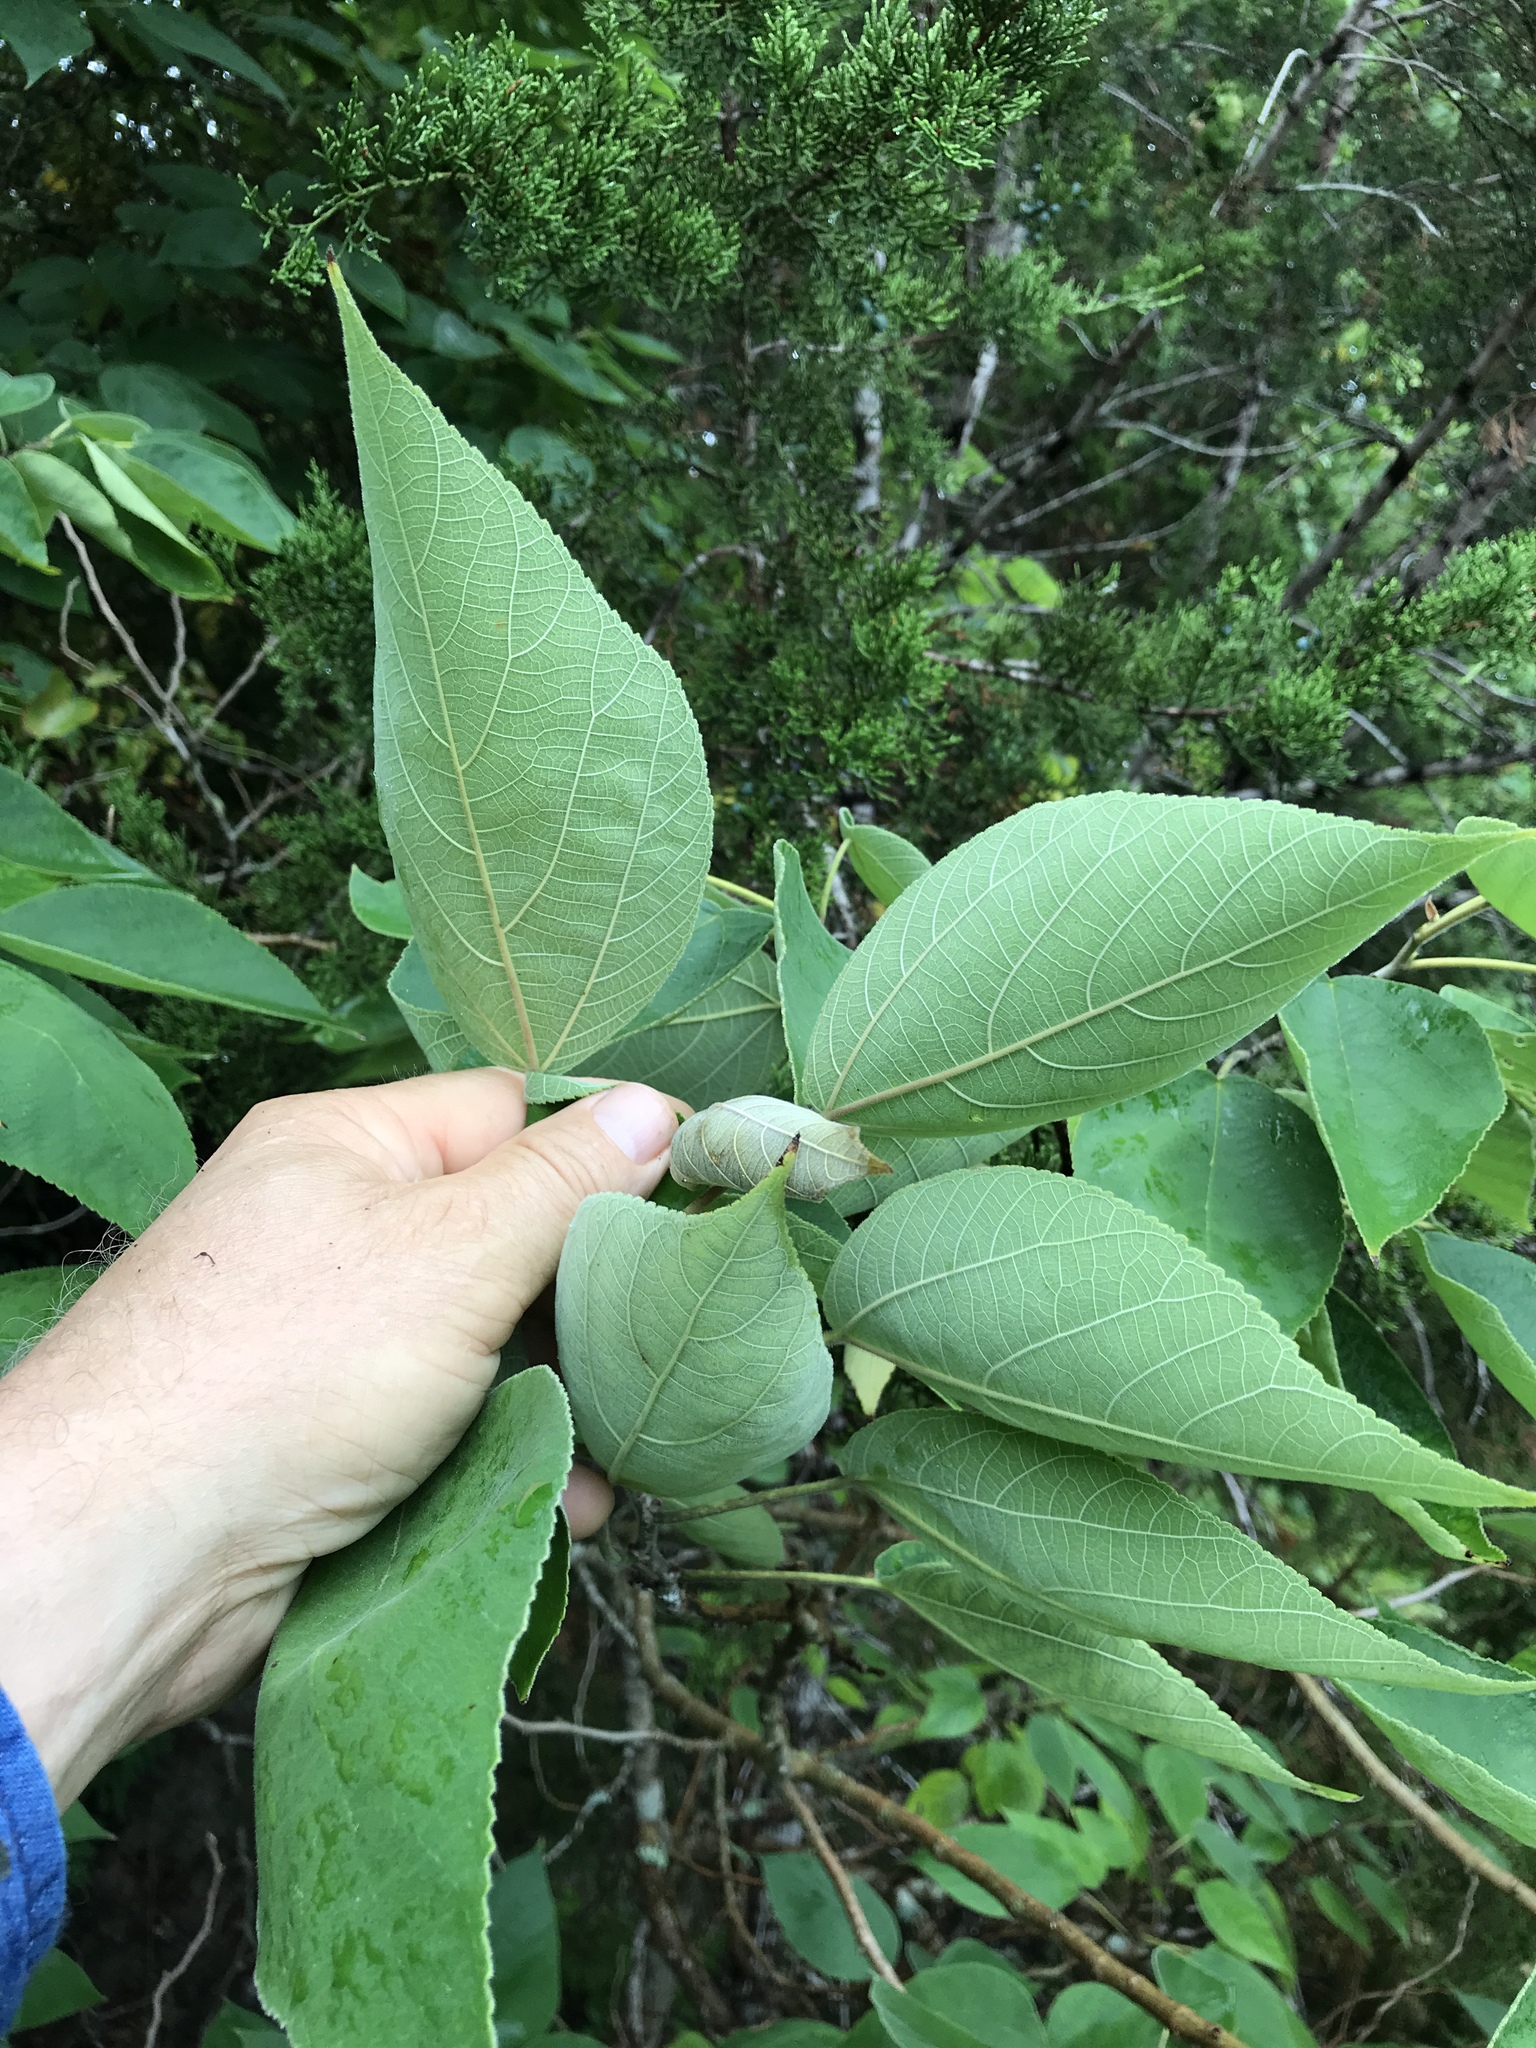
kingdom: Plantae
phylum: Tracheophyta
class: Magnoliopsida
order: Rosales
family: Moraceae
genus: Broussonetia
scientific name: Broussonetia papyrifera
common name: Paper mulberry
